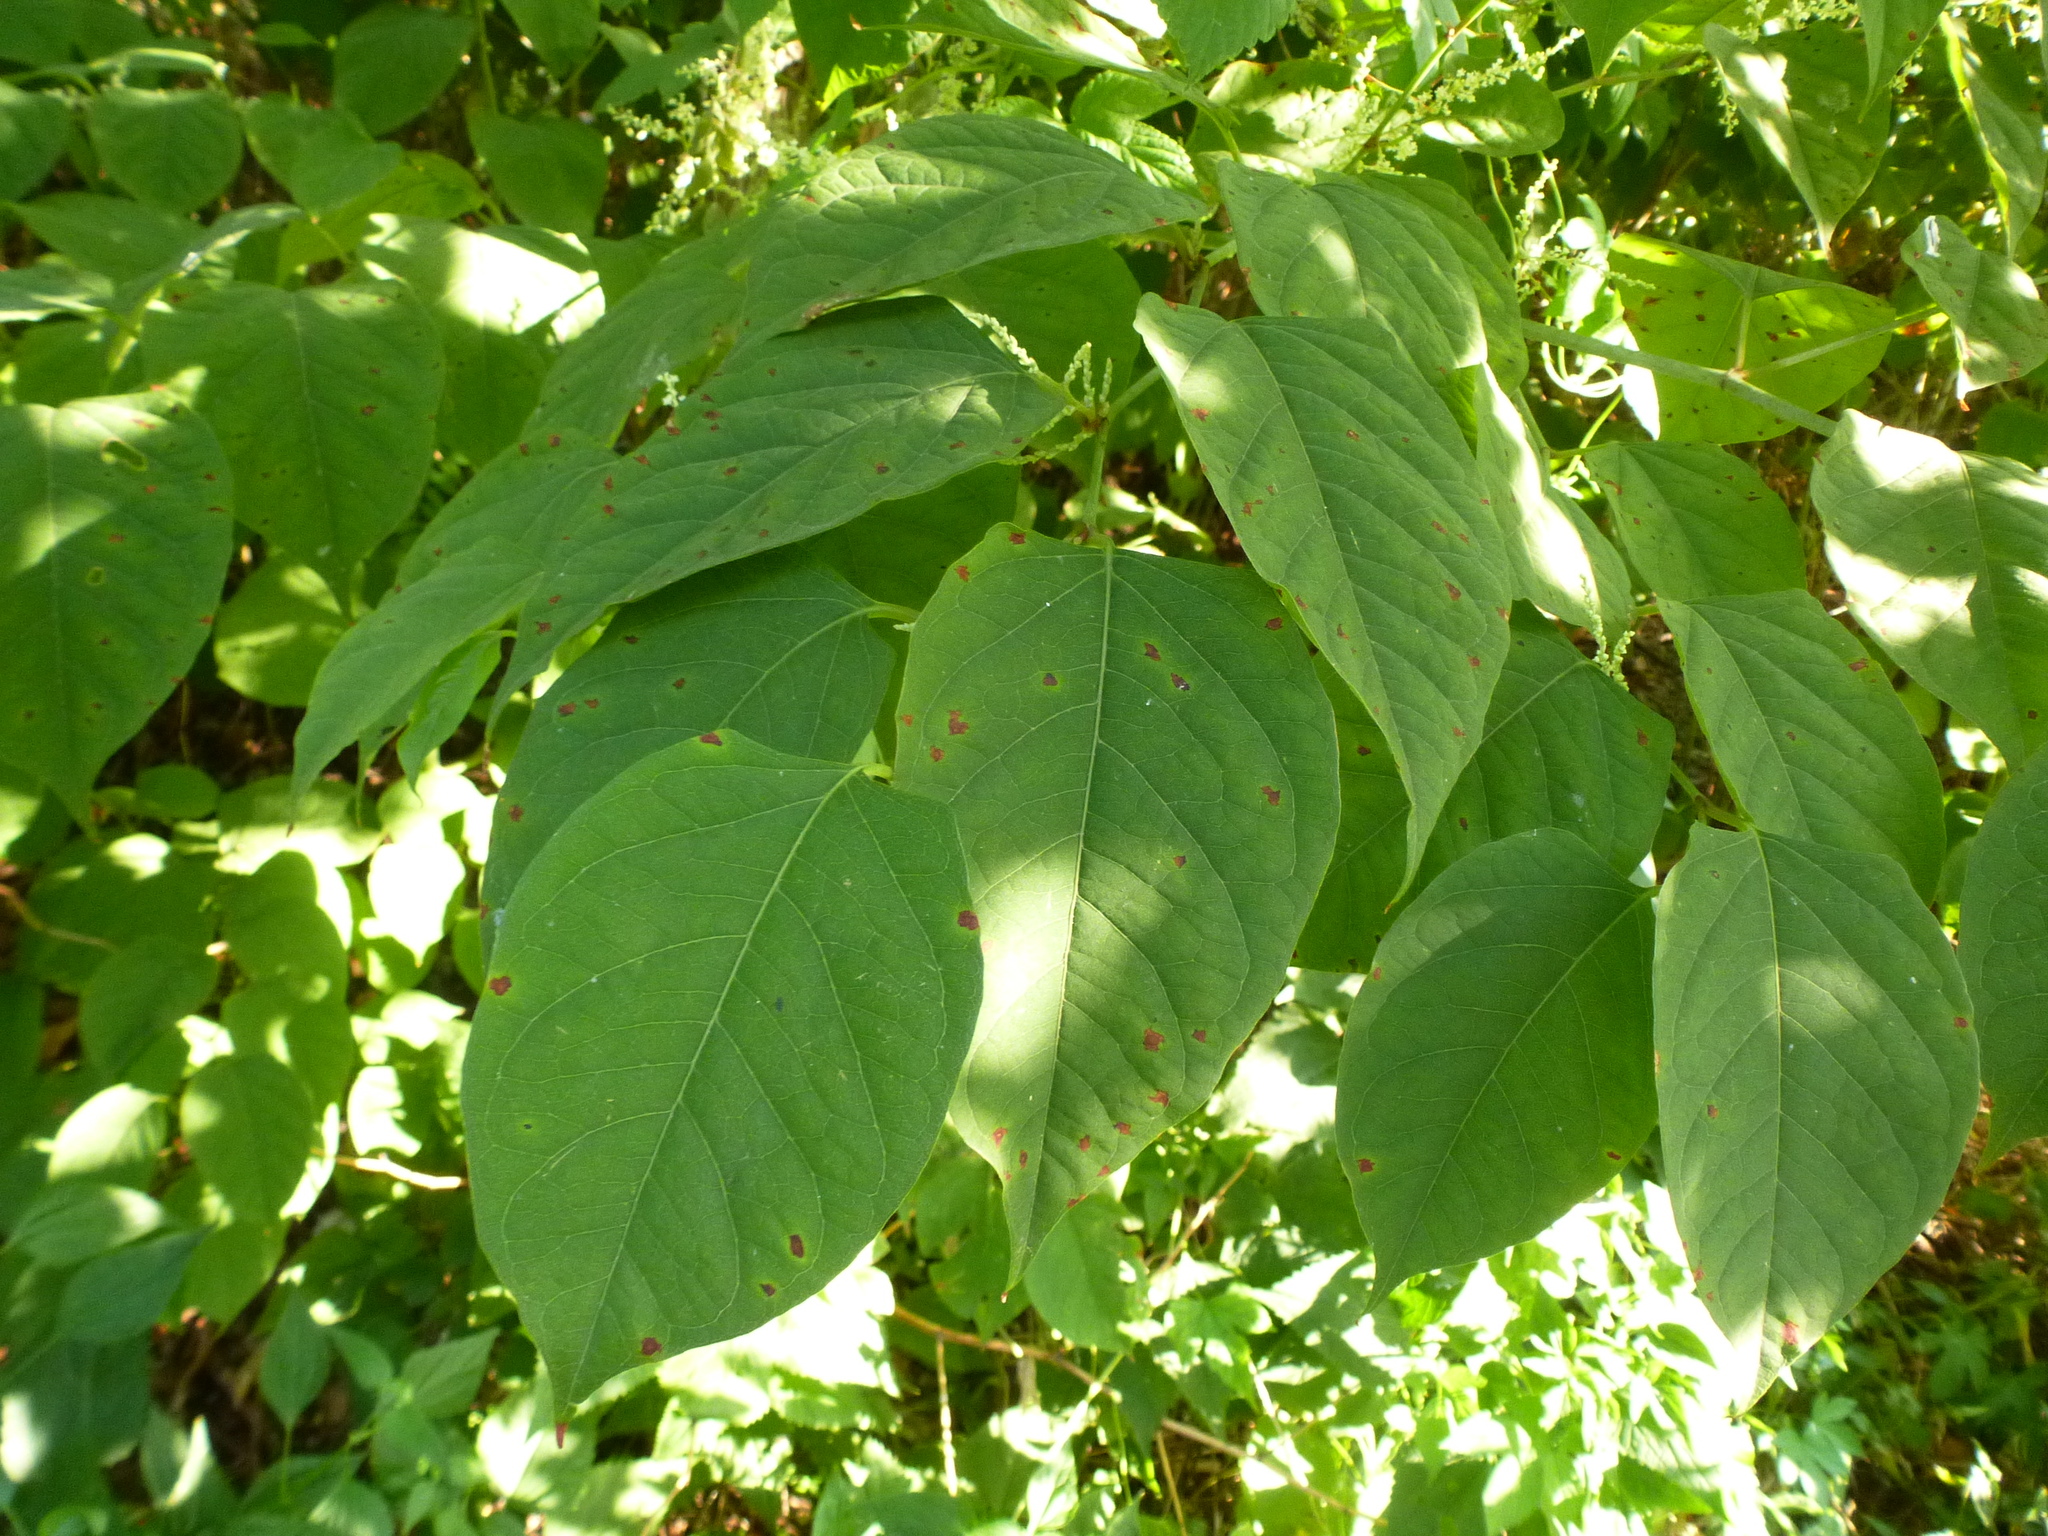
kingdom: Plantae
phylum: Tracheophyta
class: Magnoliopsida
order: Caryophyllales
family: Polygonaceae
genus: Reynoutria
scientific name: Reynoutria japonica
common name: Japanese knotweed
